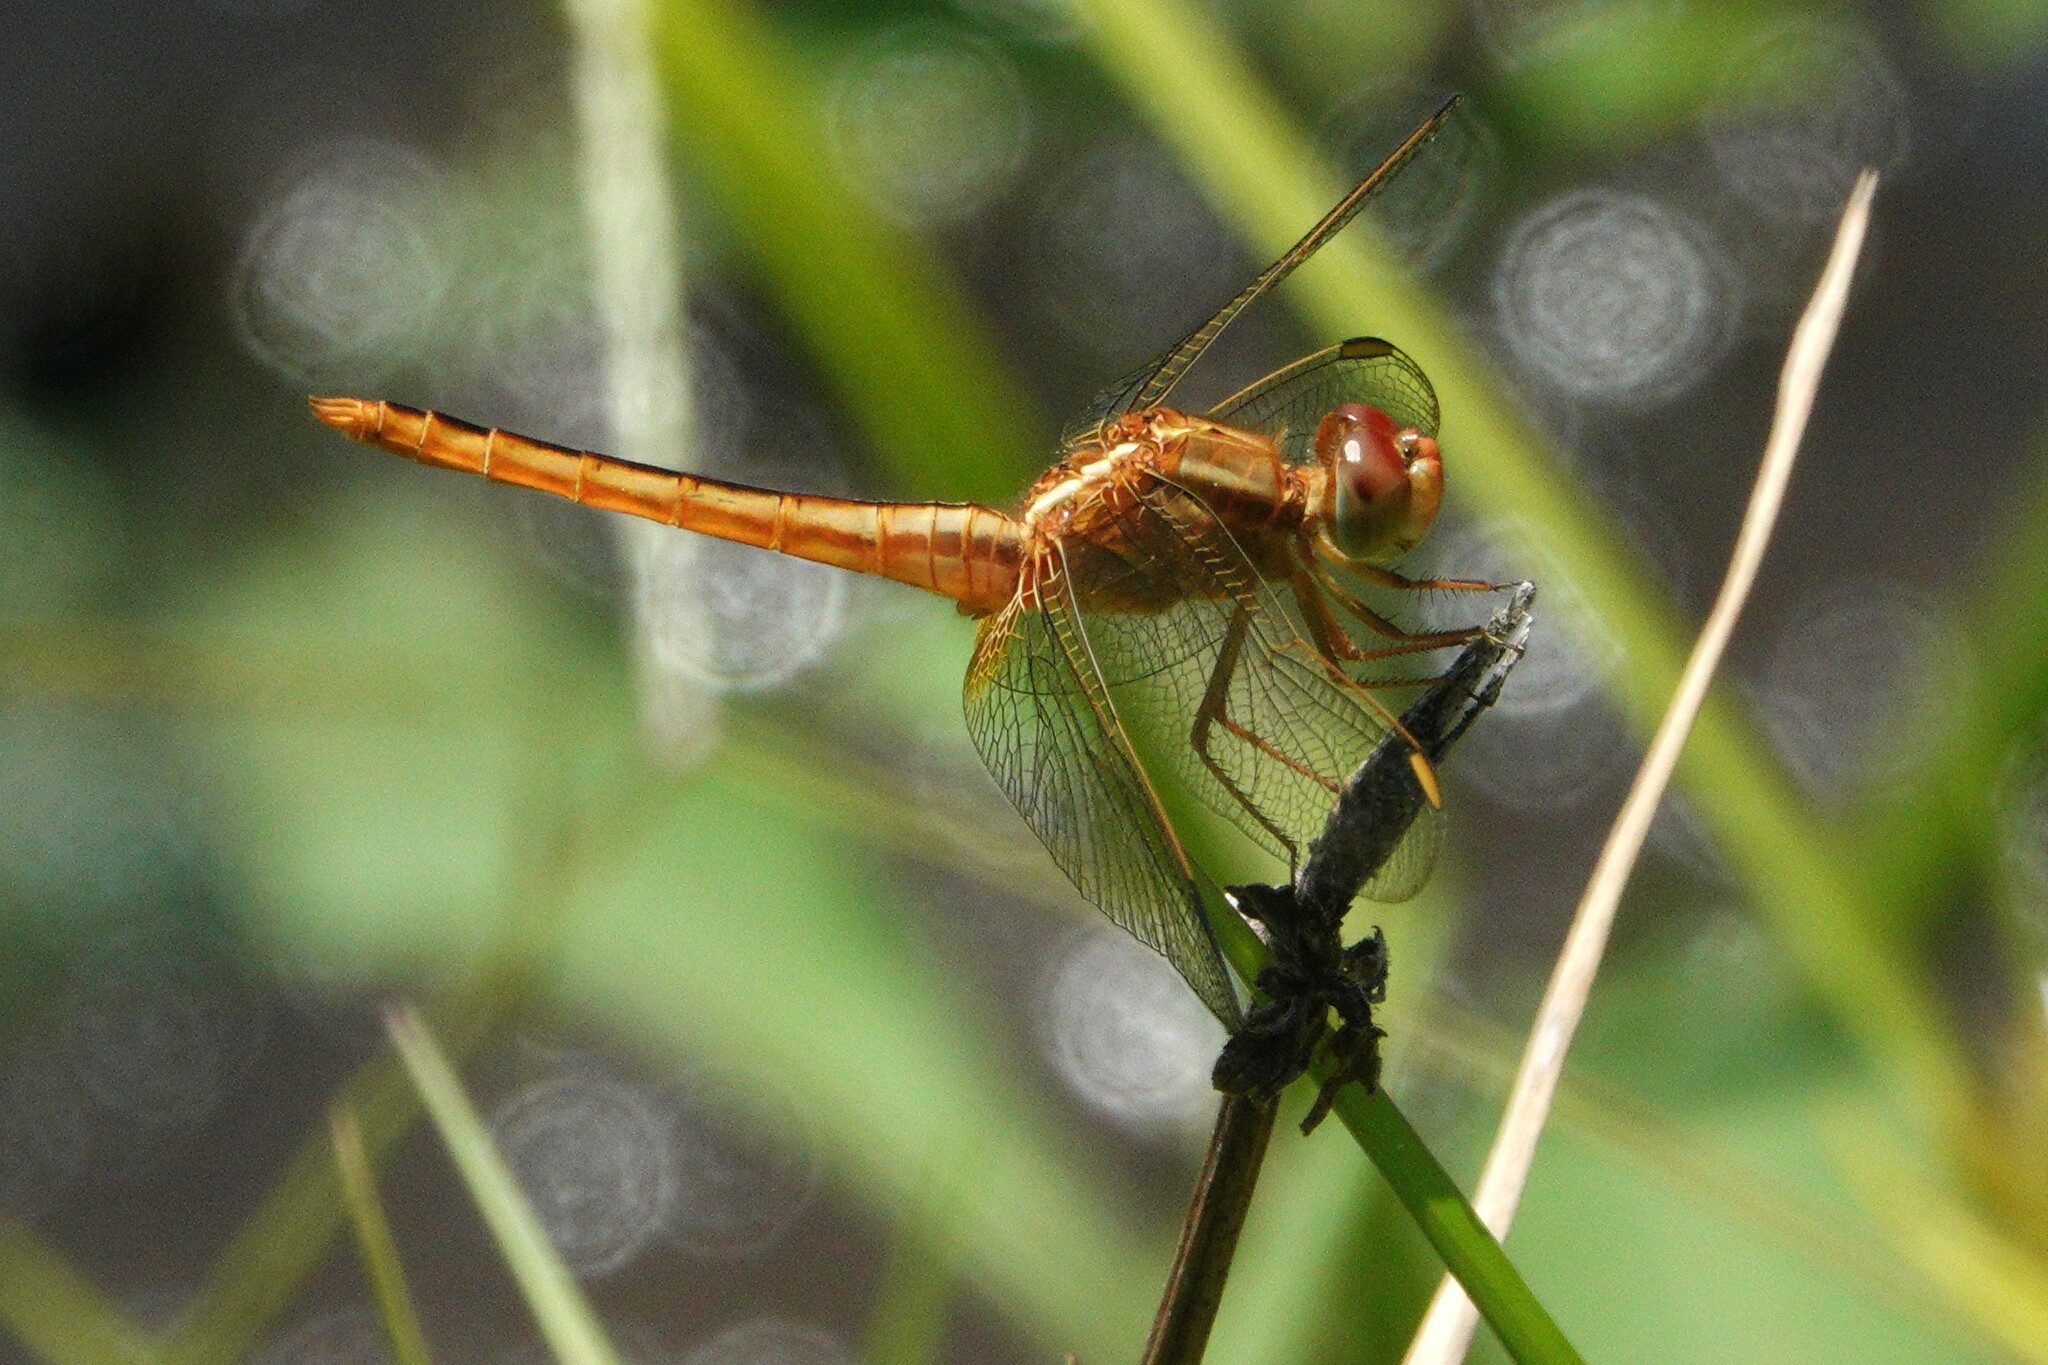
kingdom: Animalia
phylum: Arthropoda
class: Insecta
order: Odonata
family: Libellulidae
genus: Crocothemis
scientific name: Crocothemis servilia
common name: Scarlet skimmer
